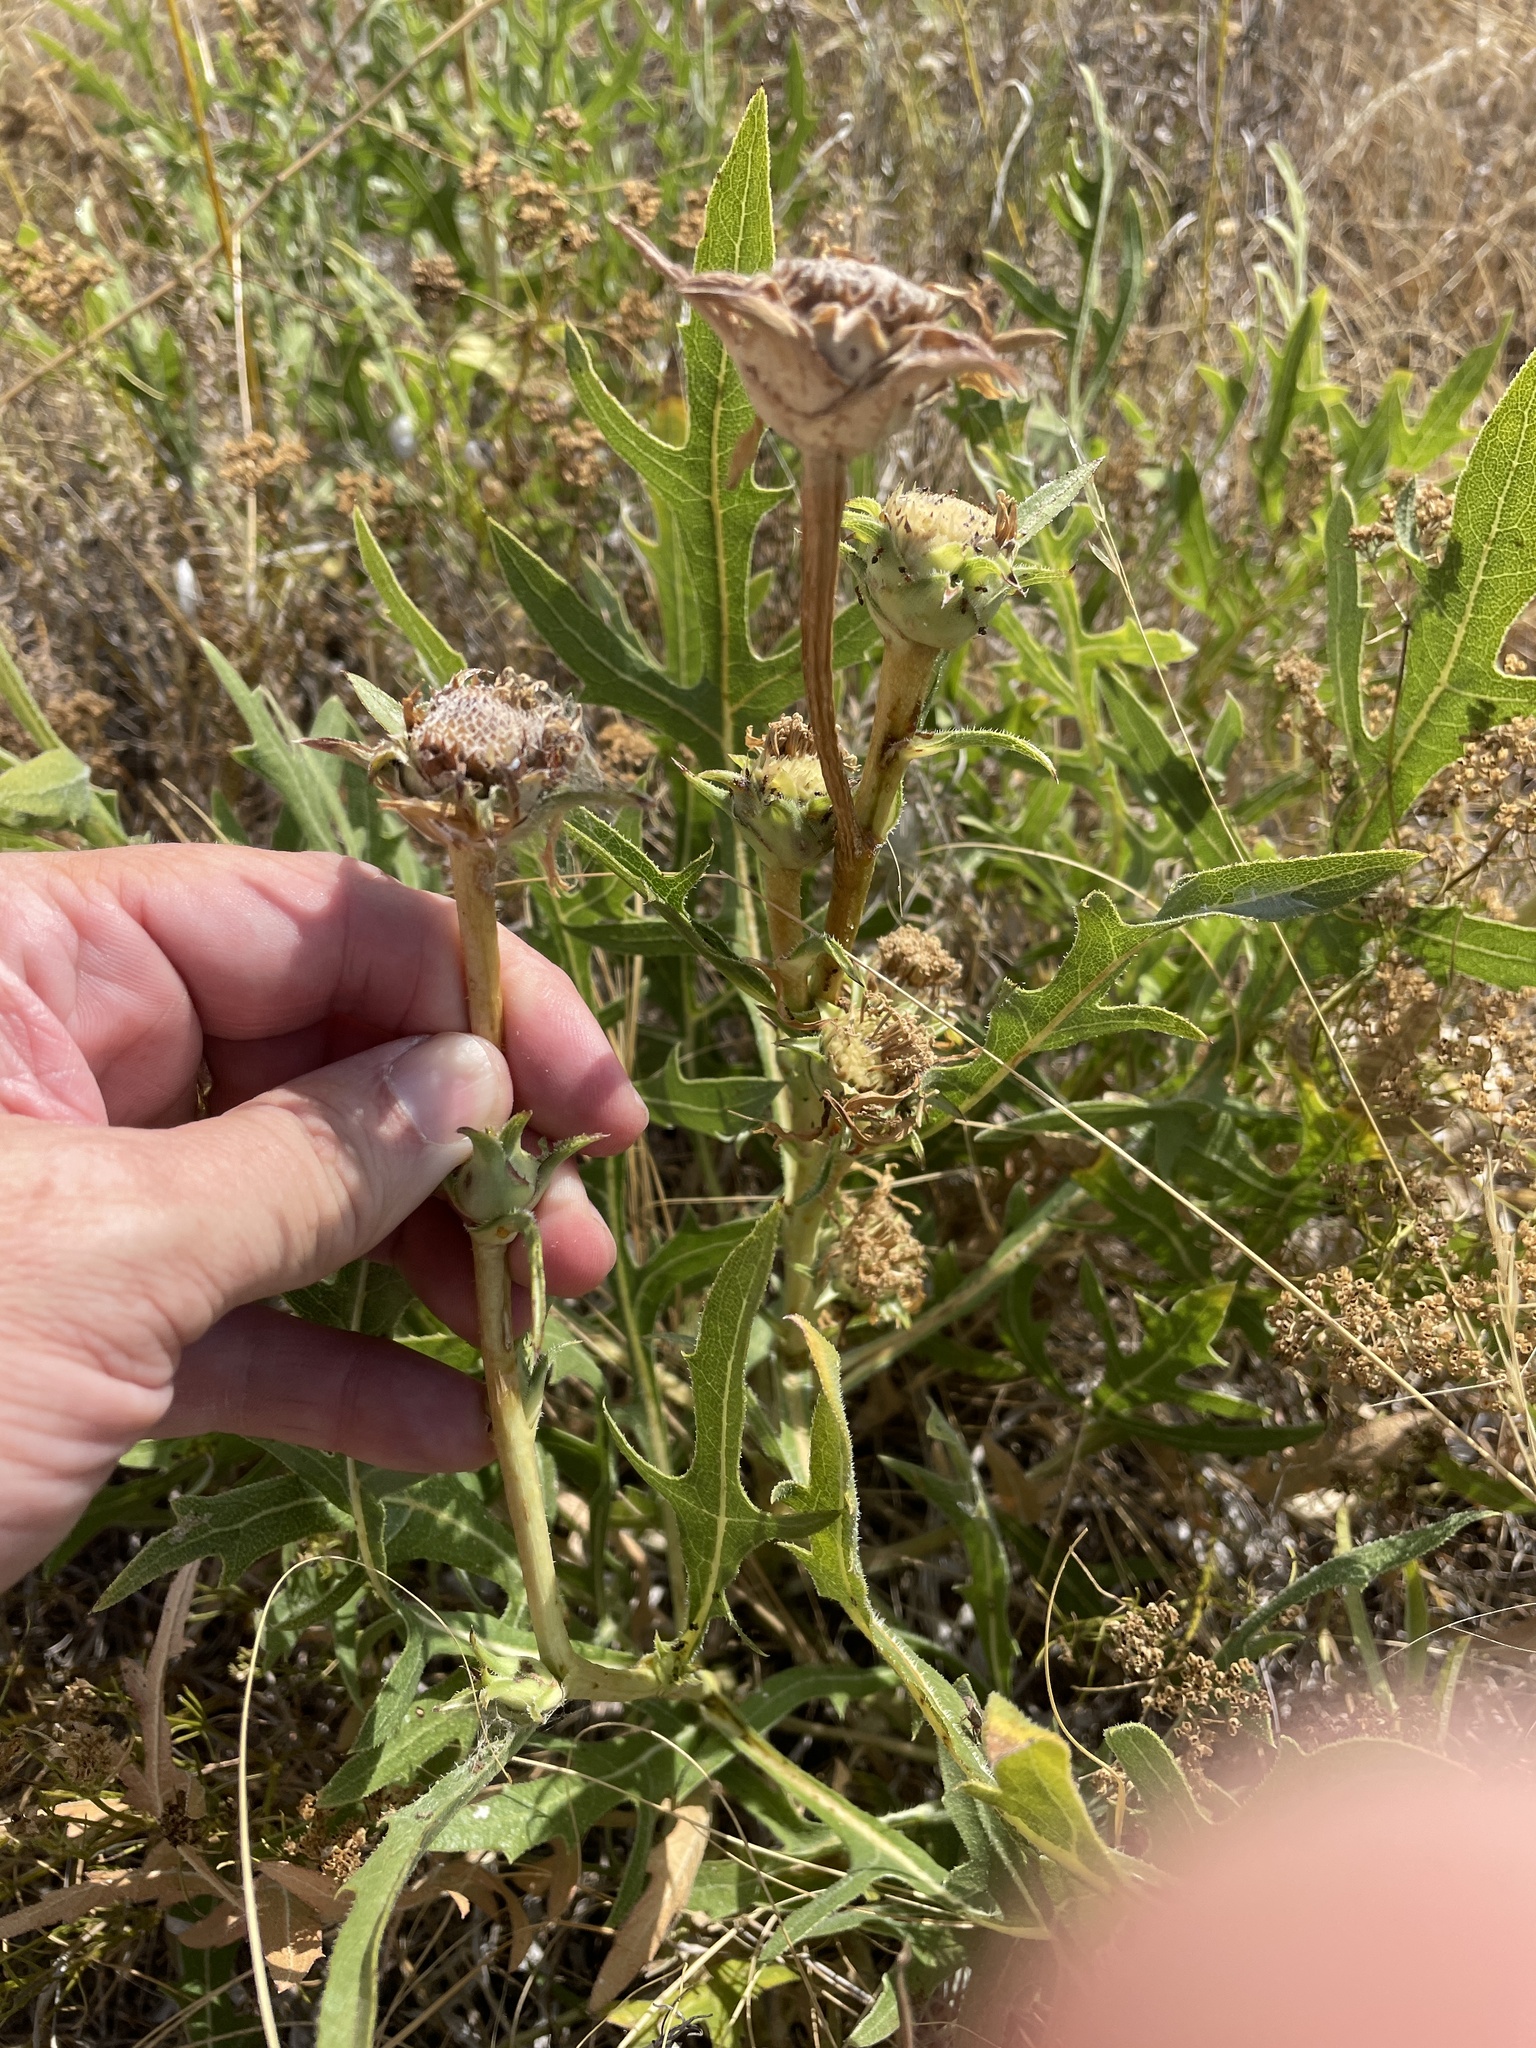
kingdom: Plantae
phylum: Tracheophyta
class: Magnoliopsida
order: Asterales
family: Asteraceae
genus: Silphium
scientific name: Silphium albiflorum
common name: White rosinweed
